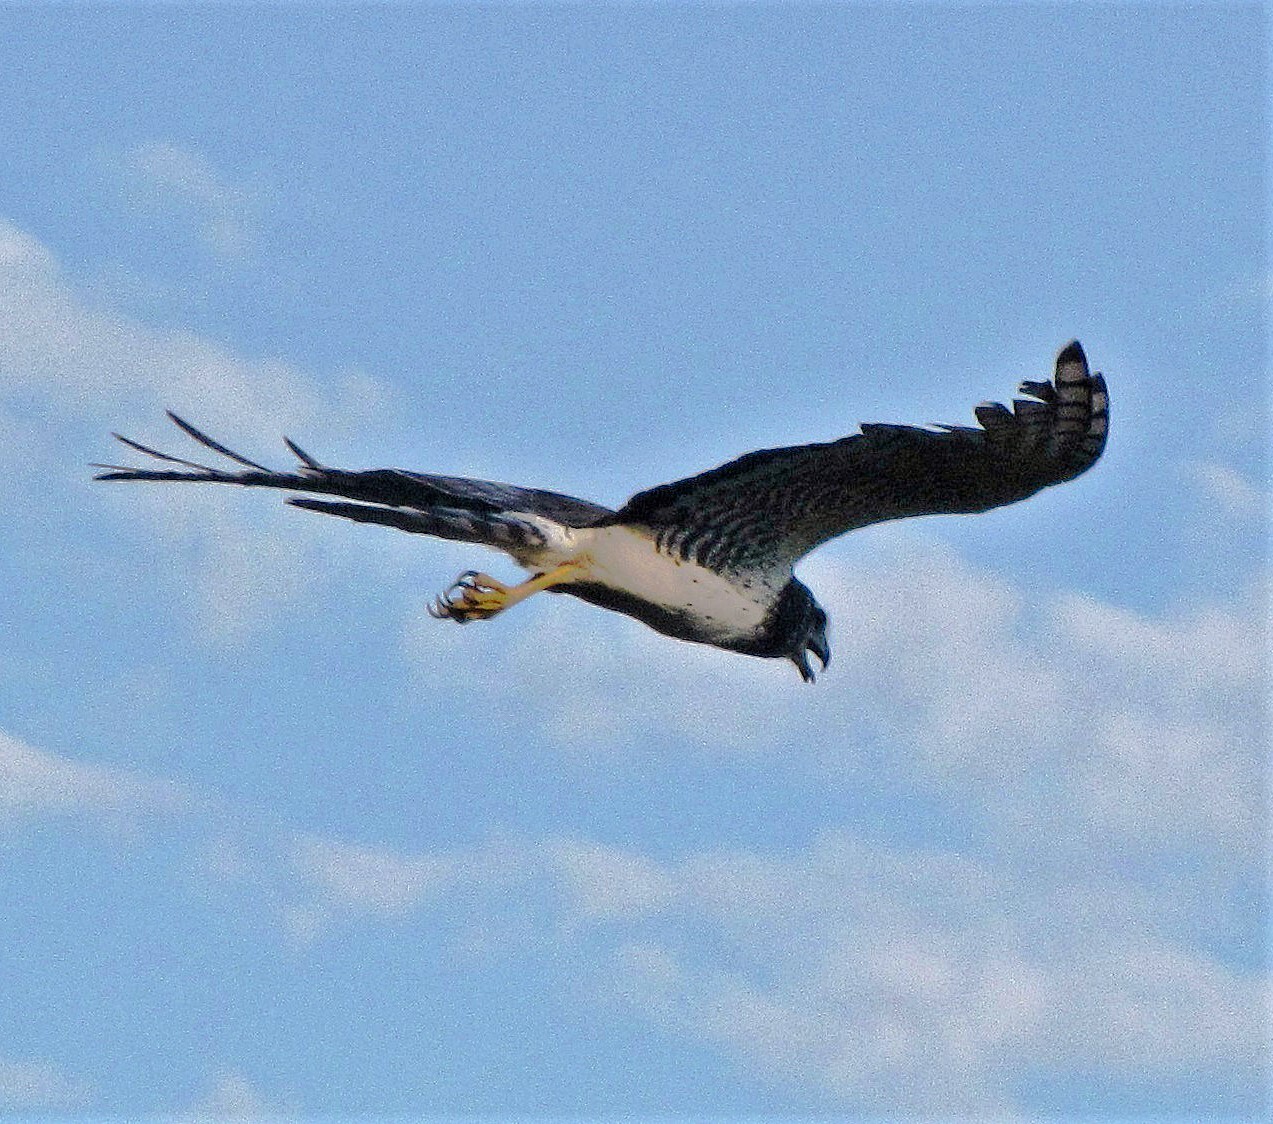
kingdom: Animalia
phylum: Chordata
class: Aves
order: Accipitriformes
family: Accipitridae
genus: Circus
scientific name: Circus buffoni
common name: Long-winged harrier
